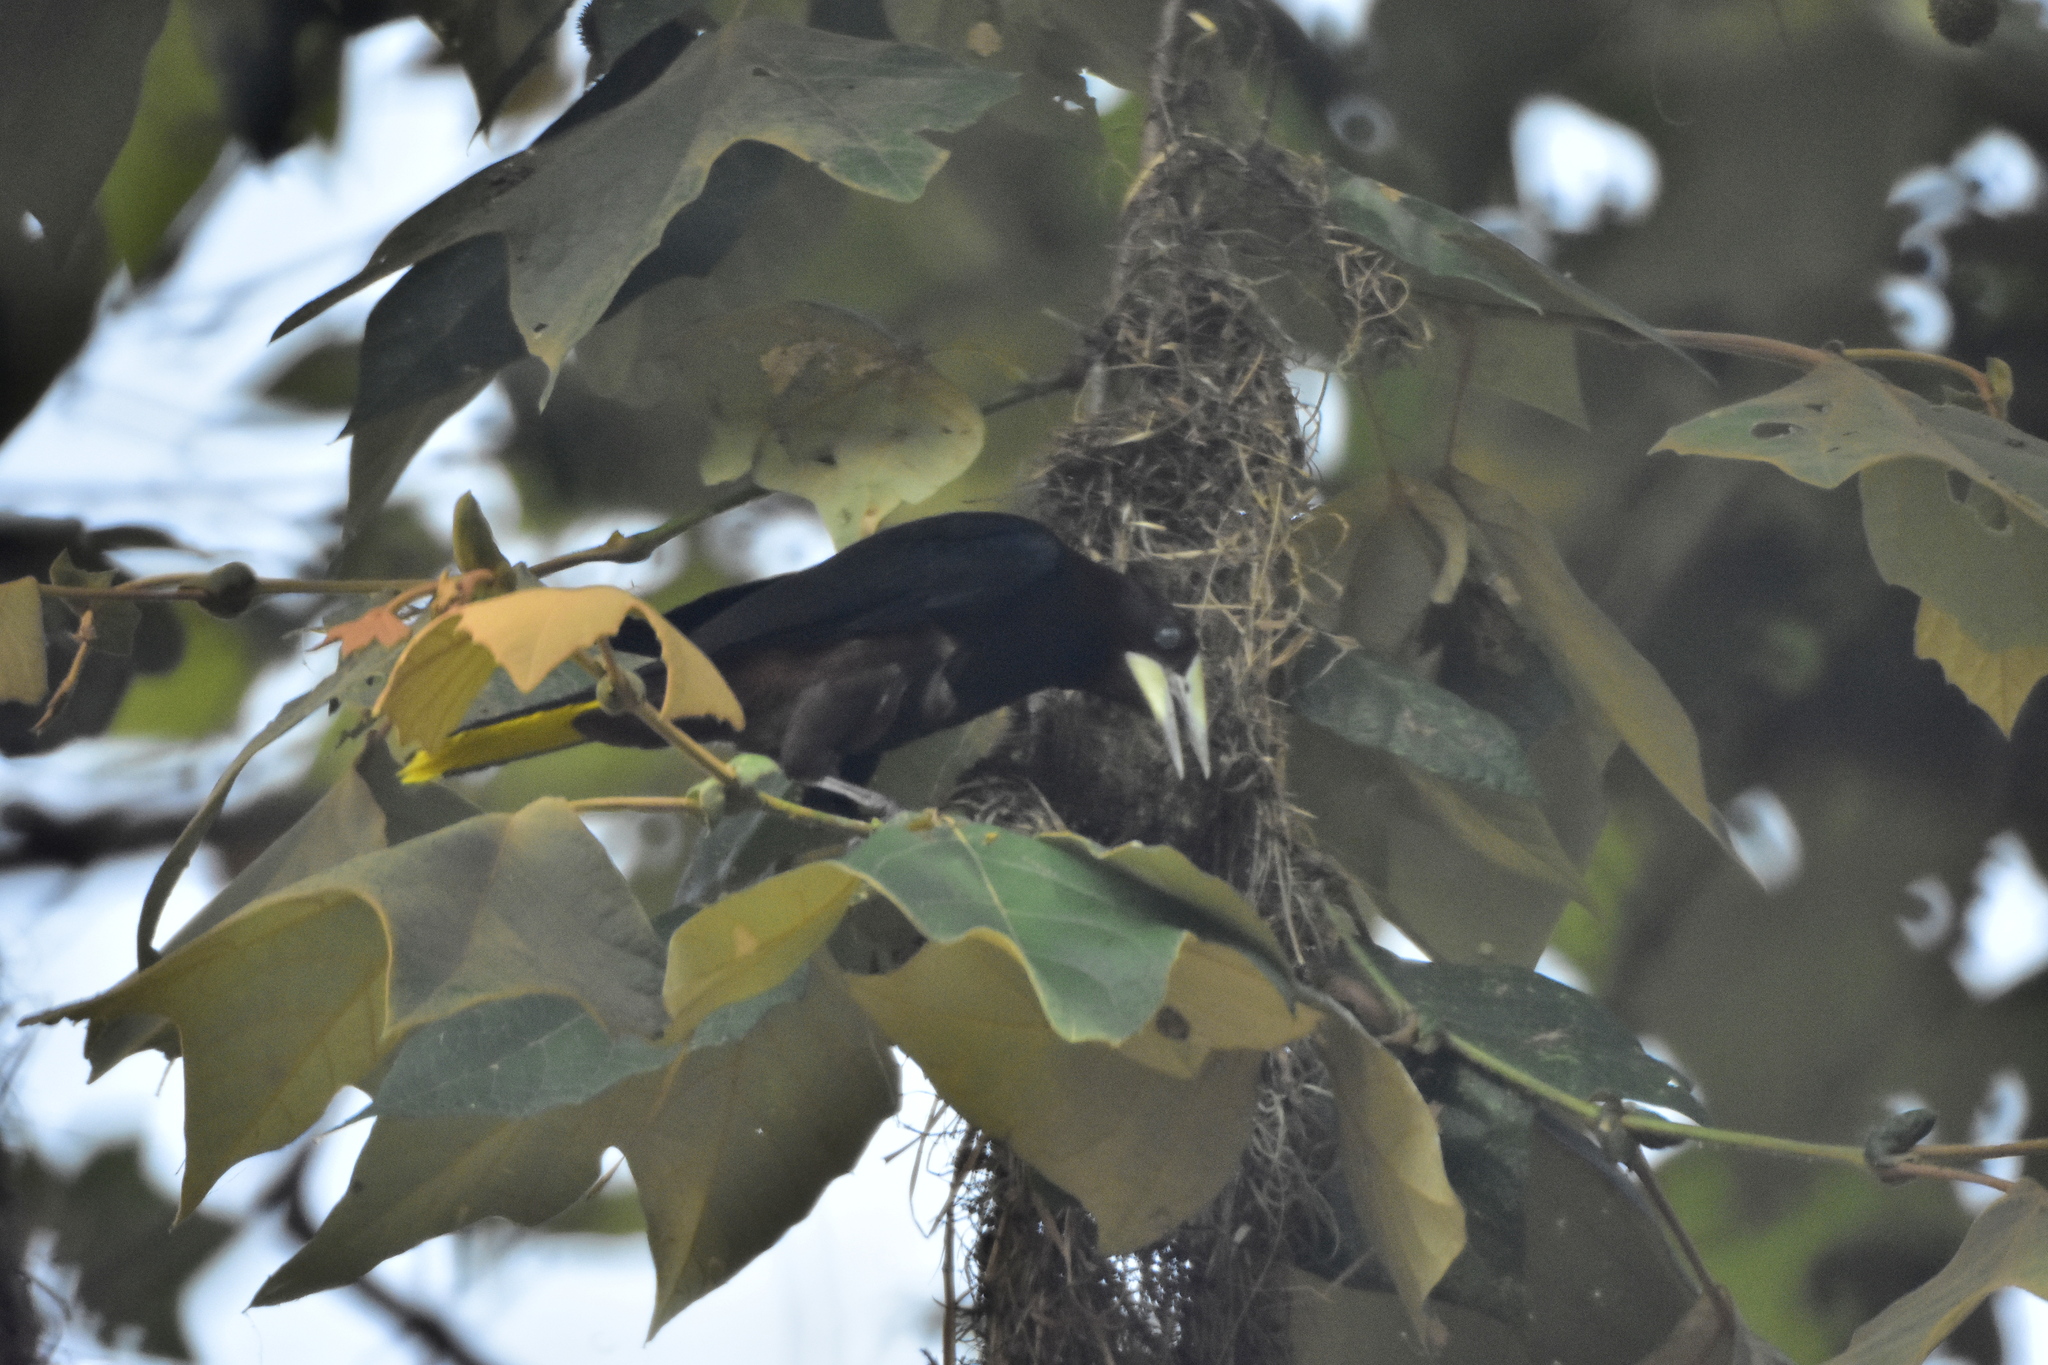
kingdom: Animalia
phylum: Chordata
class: Aves
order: Passeriformes
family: Icteridae
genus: Psarocolius
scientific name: Psarocolius wagleri
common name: Chestnut-headed oropendola
